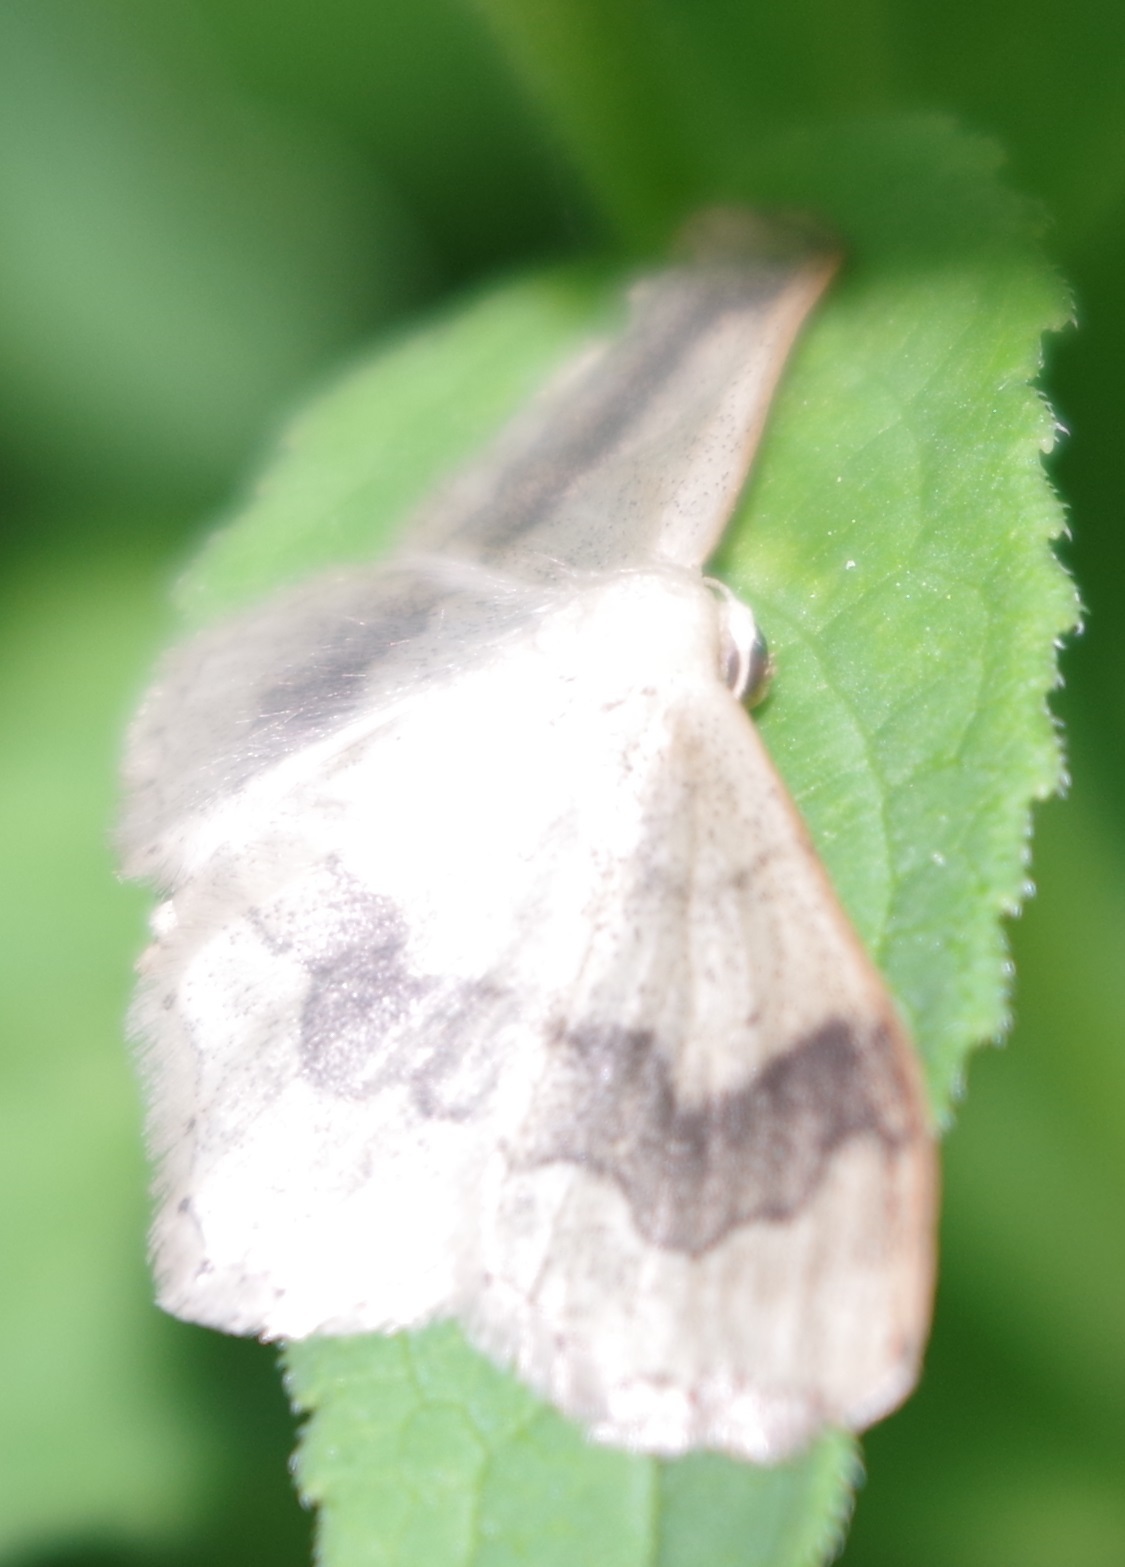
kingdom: Animalia
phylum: Arthropoda
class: Insecta
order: Lepidoptera
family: Geometridae
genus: Idaea
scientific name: Idaea aversata
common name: Riband wave
